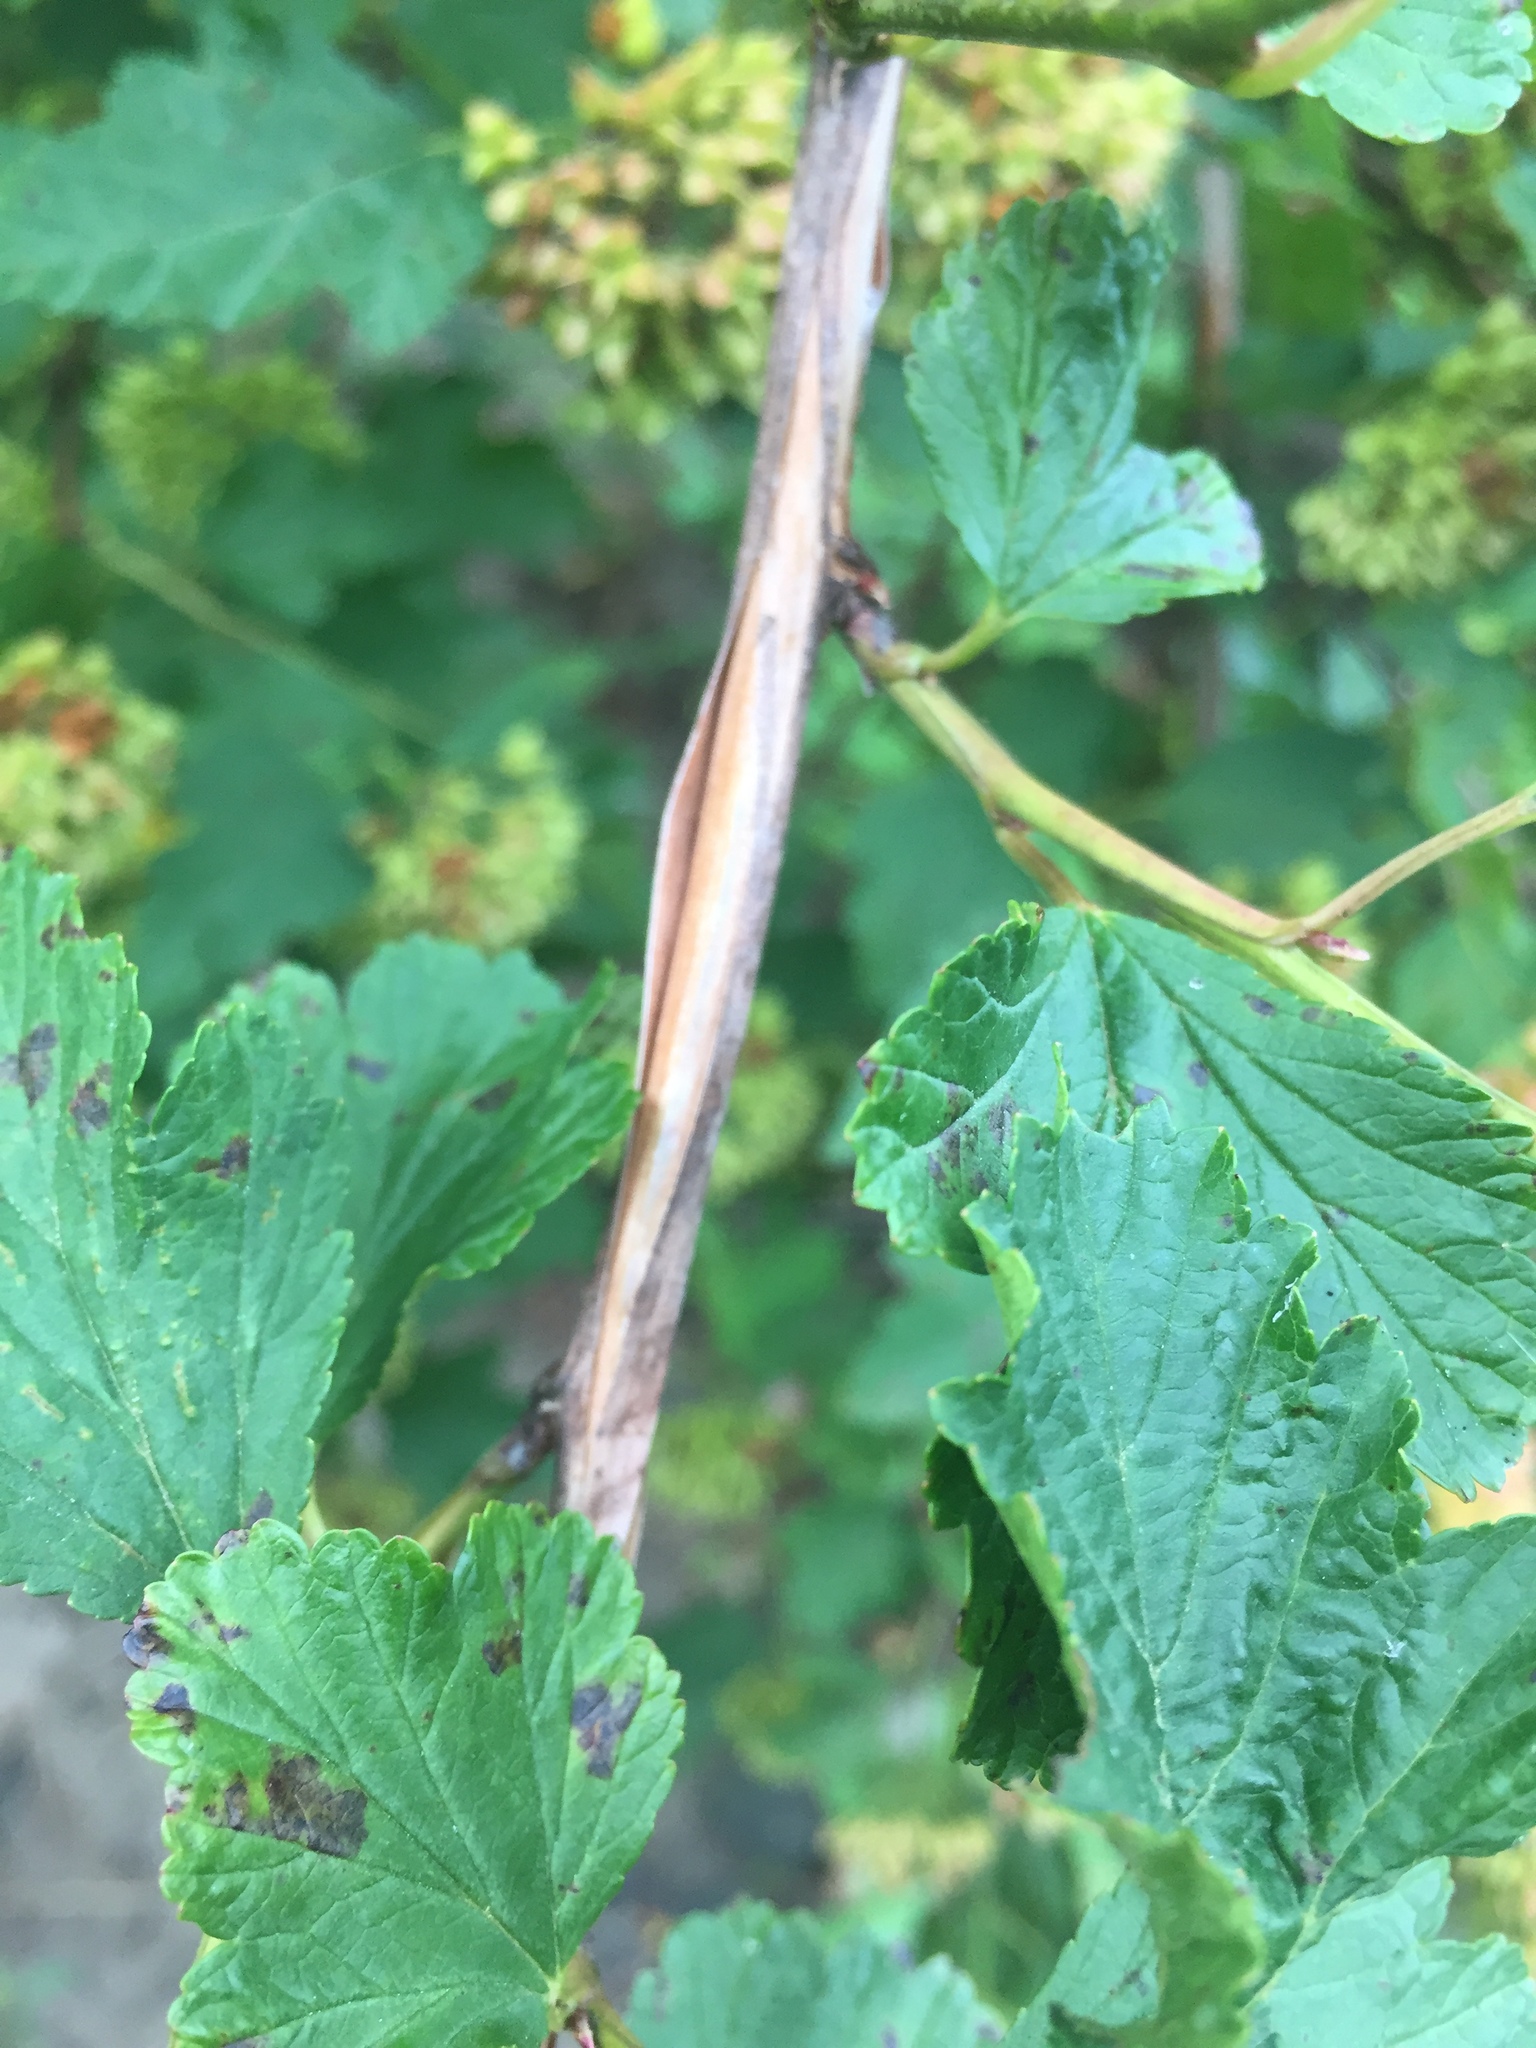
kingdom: Plantae
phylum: Tracheophyta
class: Magnoliopsida
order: Rosales
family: Rosaceae
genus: Physocarpus
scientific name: Physocarpus opulifolius
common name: Ninebark
